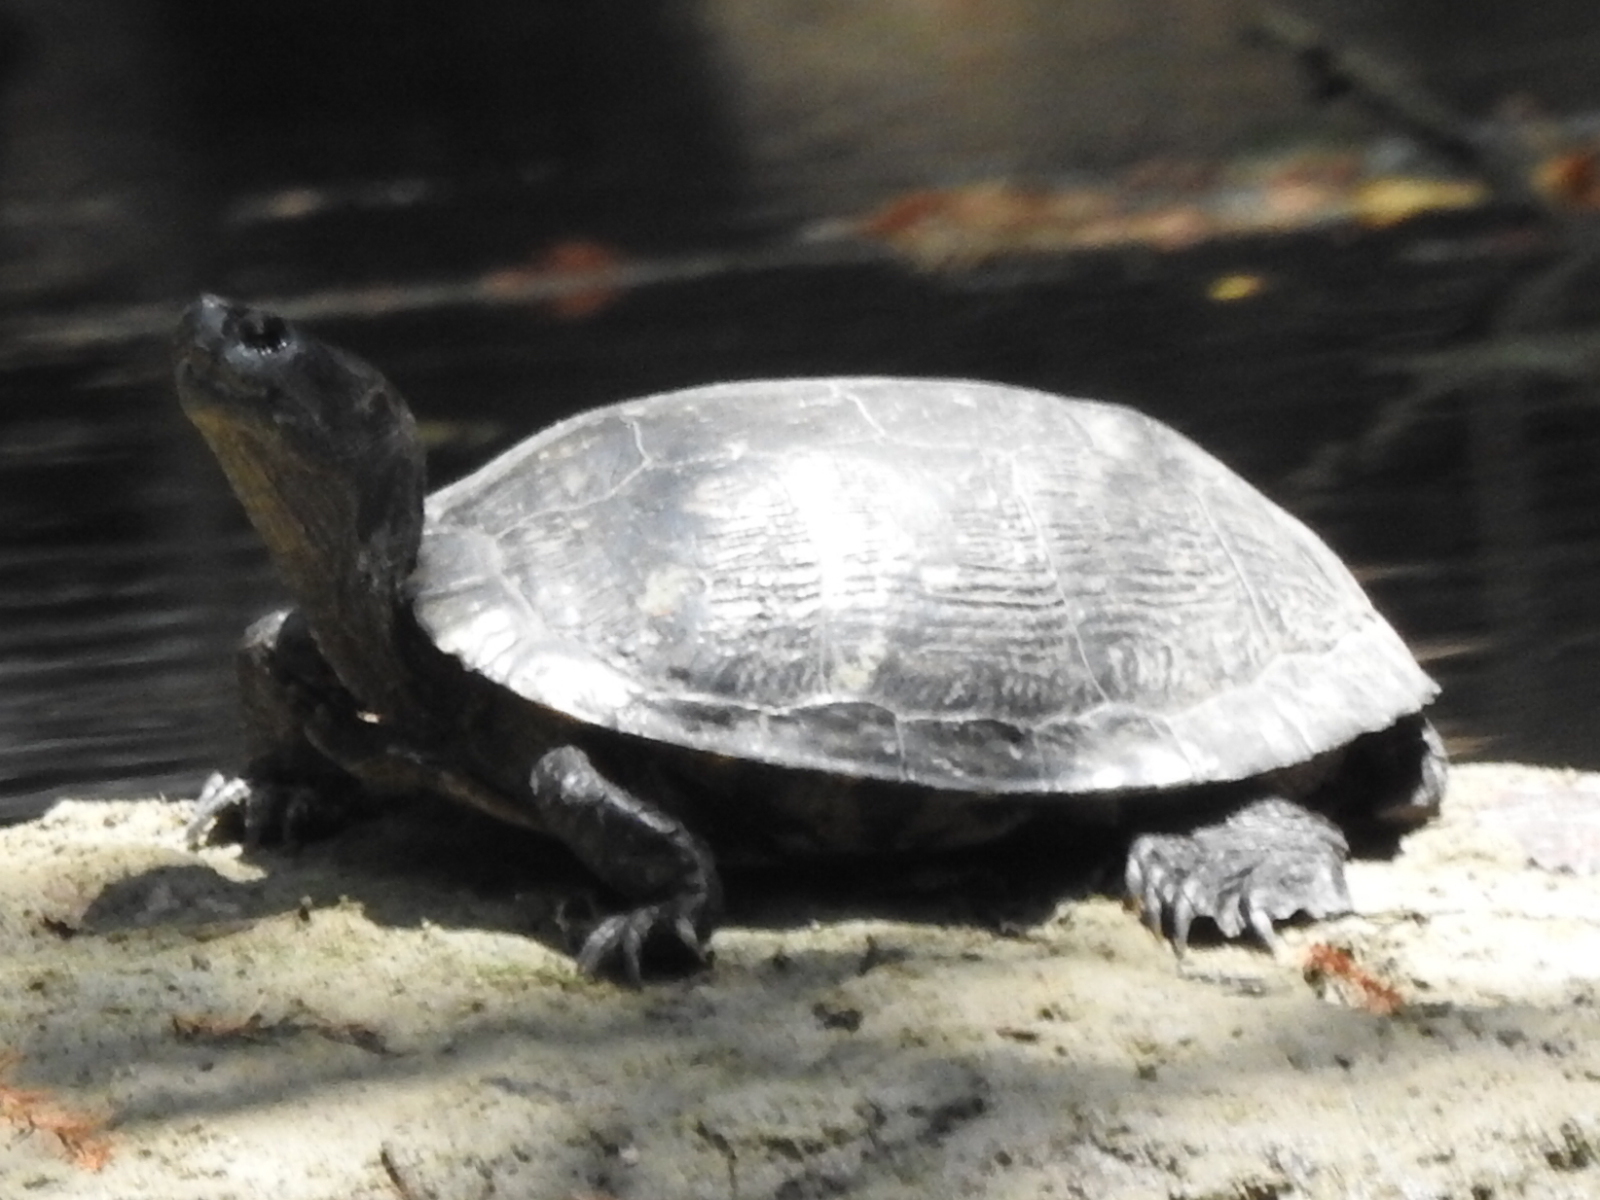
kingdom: Animalia
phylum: Chordata
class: Testudines
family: Emydidae
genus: Trachemys
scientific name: Trachemys scripta
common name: Slider
